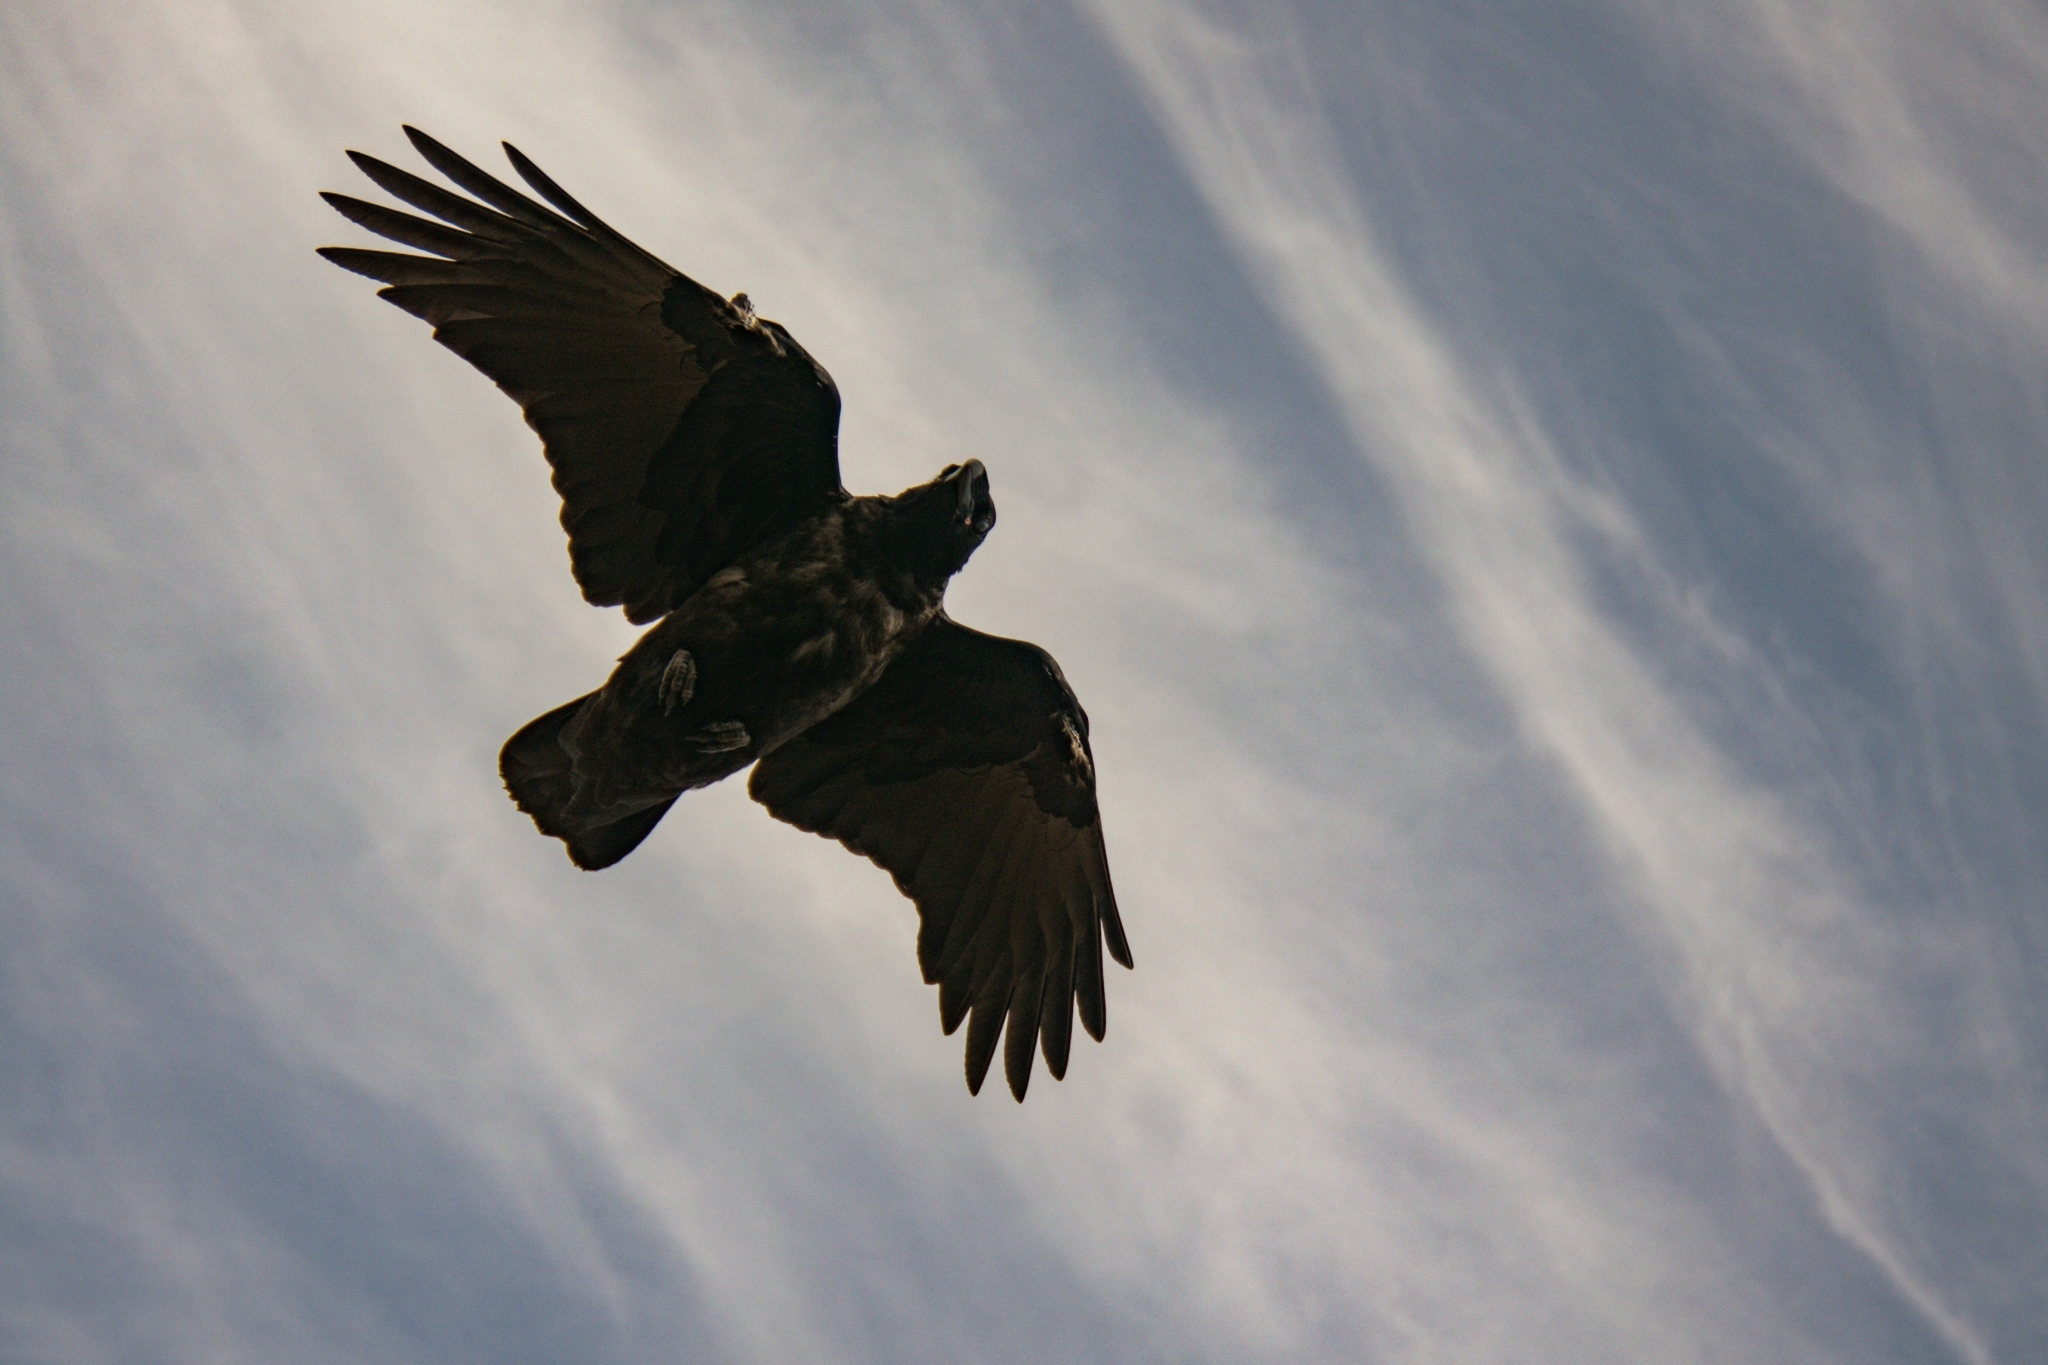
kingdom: Animalia
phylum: Chordata
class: Aves
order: Passeriformes
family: Corvidae
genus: Corvus
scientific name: Corvus corax
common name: Common raven
